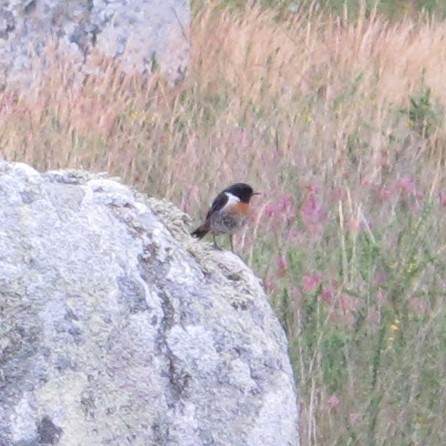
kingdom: Animalia
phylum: Chordata
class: Aves
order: Passeriformes
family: Muscicapidae
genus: Saxicola
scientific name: Saxicola rubicola
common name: European stonechat
